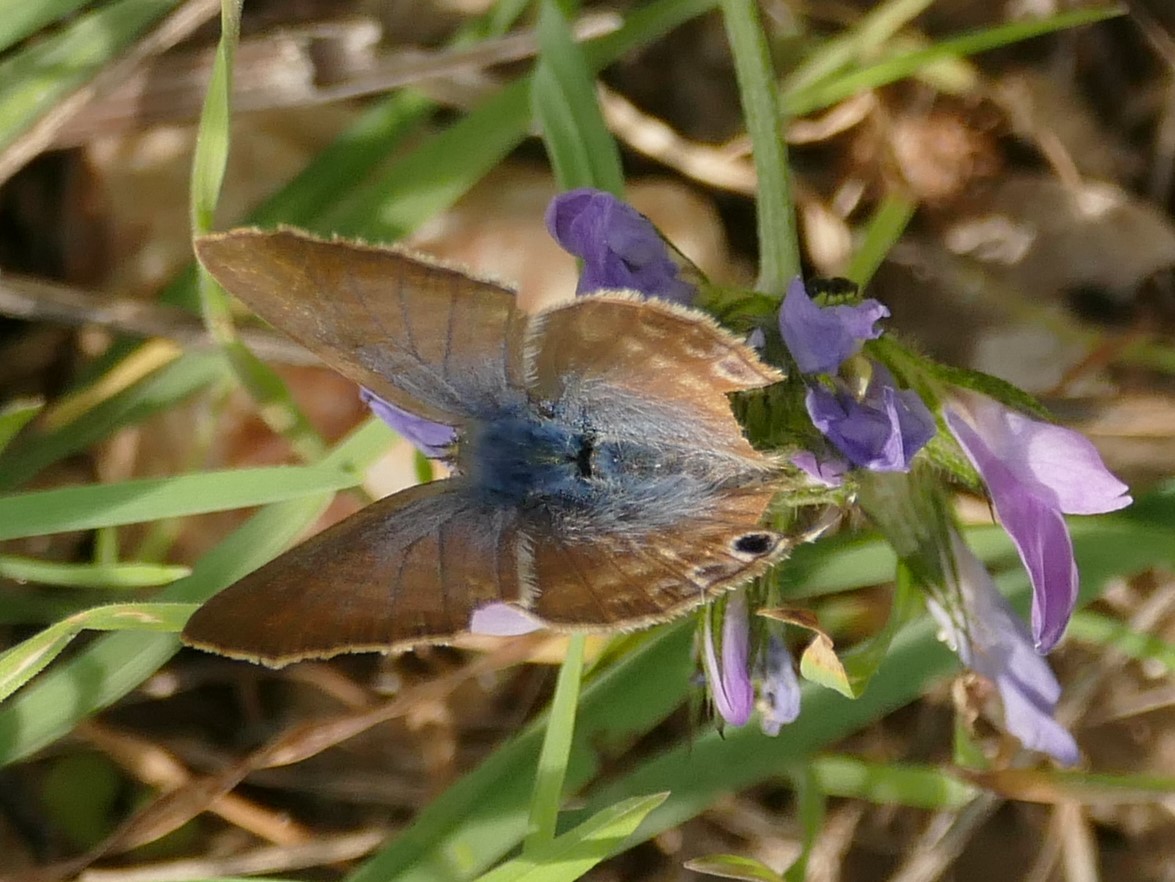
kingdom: Animalia
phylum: Arthropoda
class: Insecta
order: Lepidoptera
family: Lycaenidae
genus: Lampides
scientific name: Lampides boeticus
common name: Long-tailed blue
